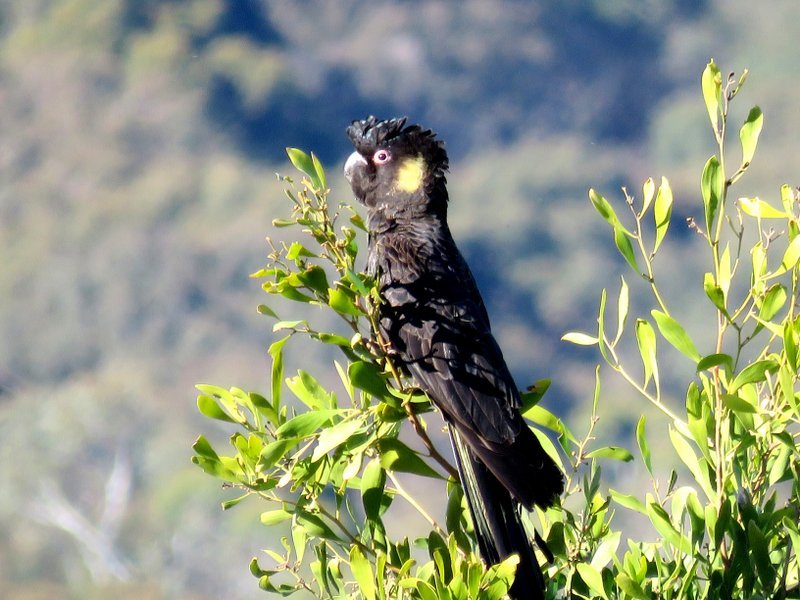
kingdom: Animalia
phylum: Chordata
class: Aves
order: Psittaciformes
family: Cacatuidae
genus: Zanda
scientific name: Zanda funerea
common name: Yellow-tailed black-cockatoo
